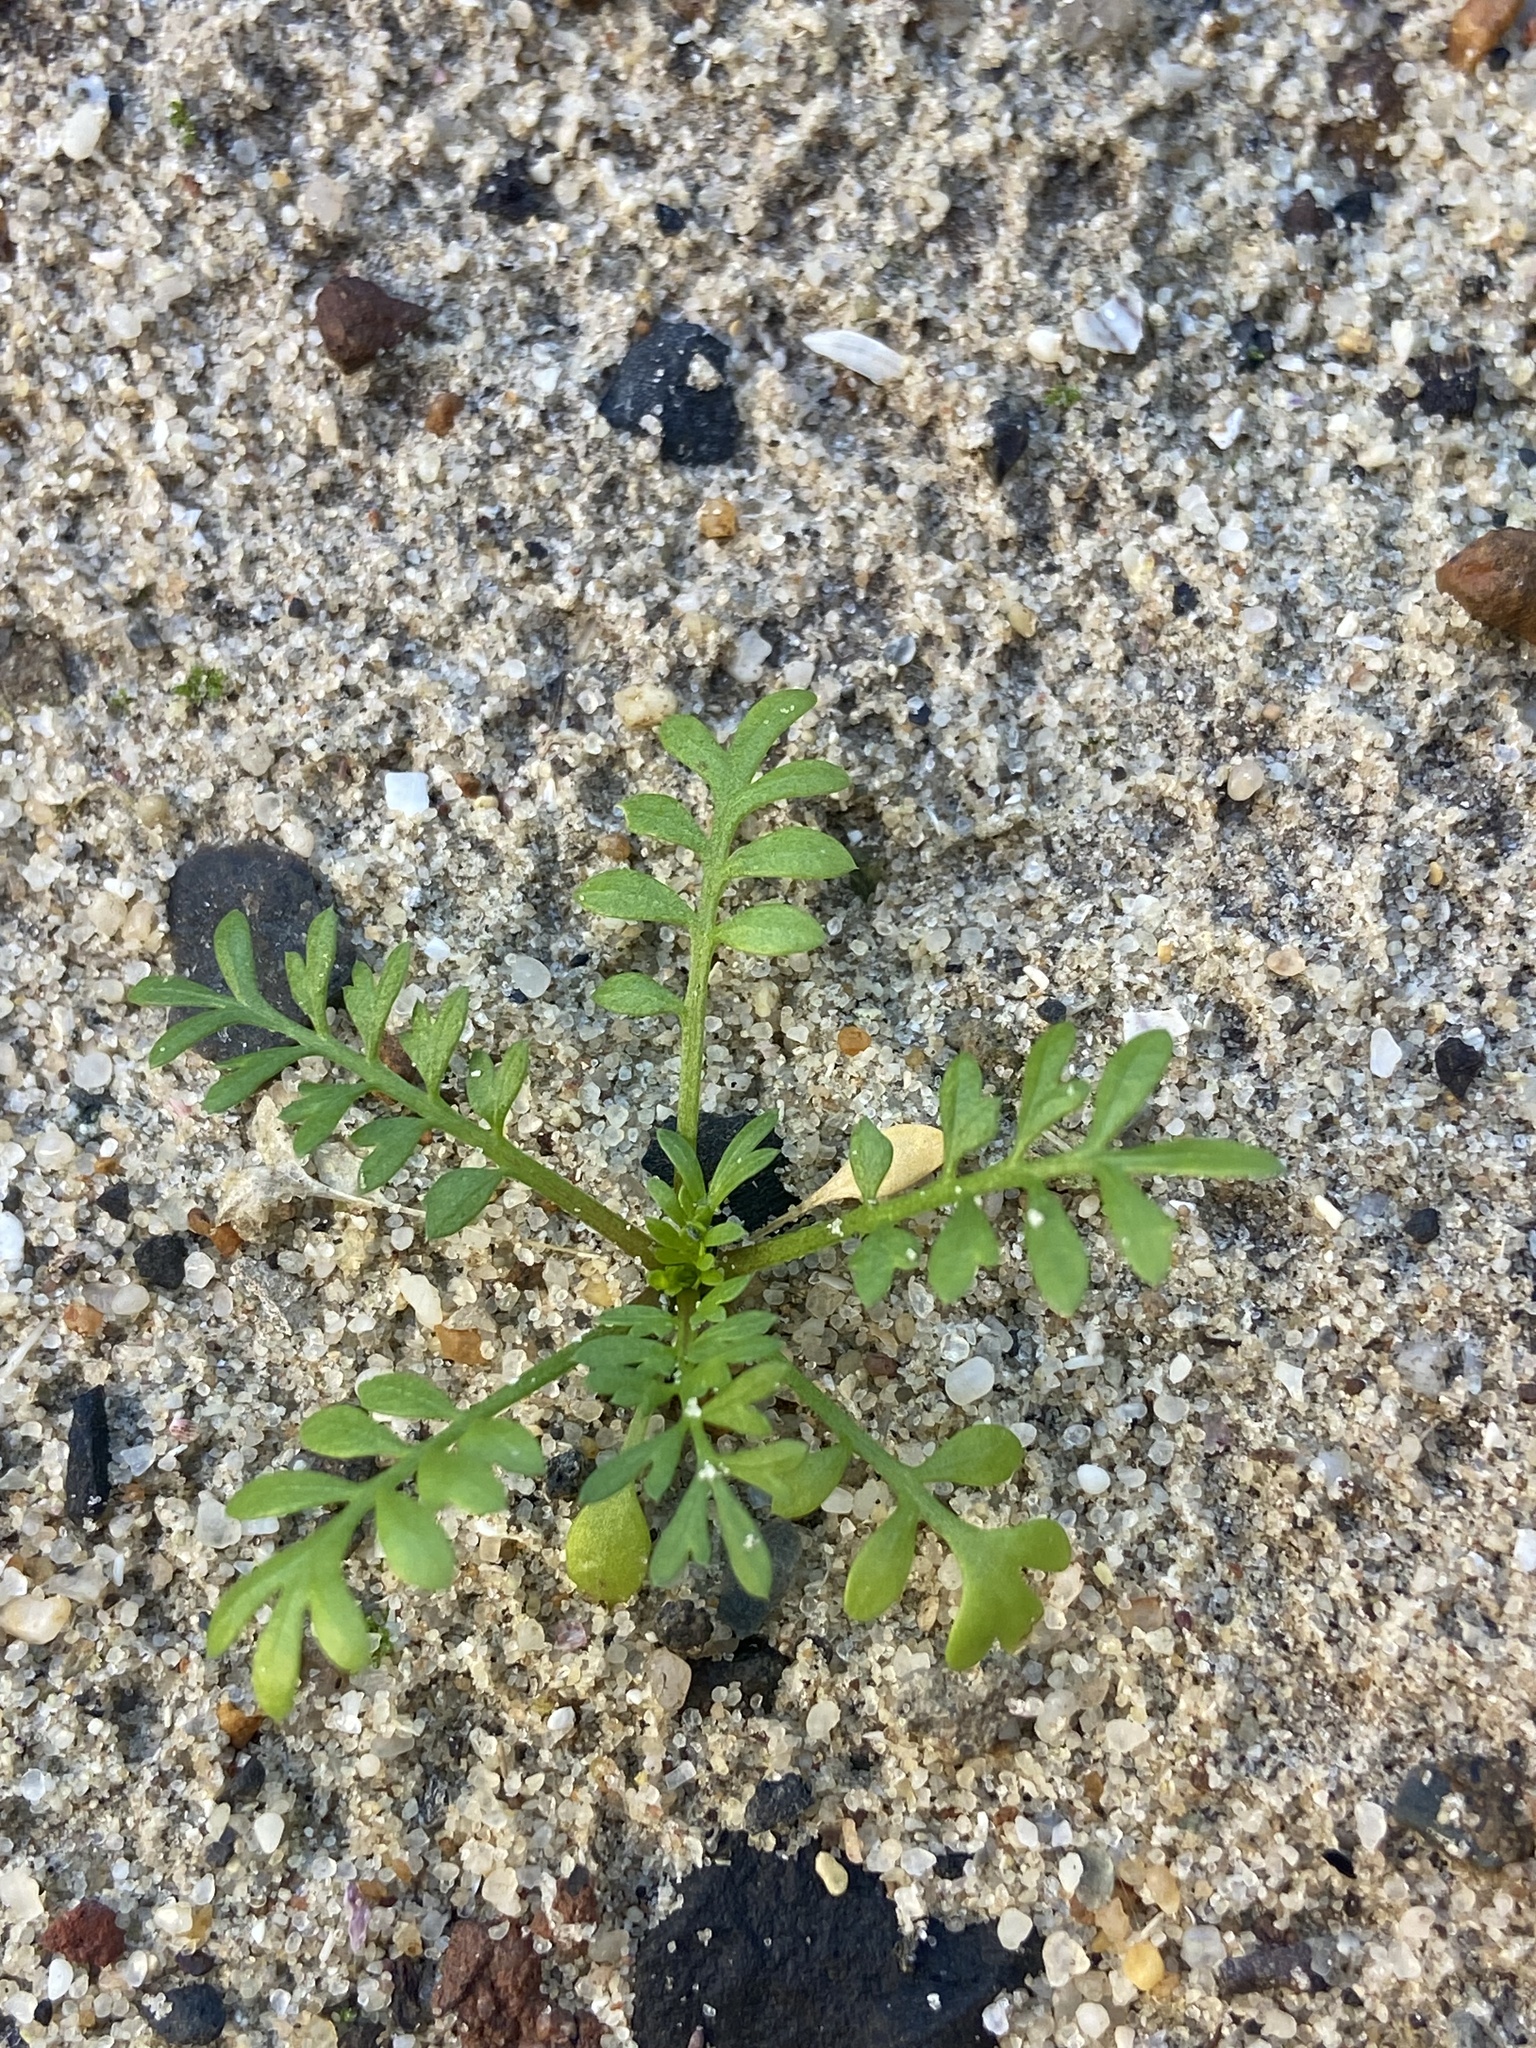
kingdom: Plantae
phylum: Tracheophyta
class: Magnoliopsida
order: Brassicales
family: Brassicaceae
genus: Lepidium
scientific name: Lepidium didymum
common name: Lesser swinecress
